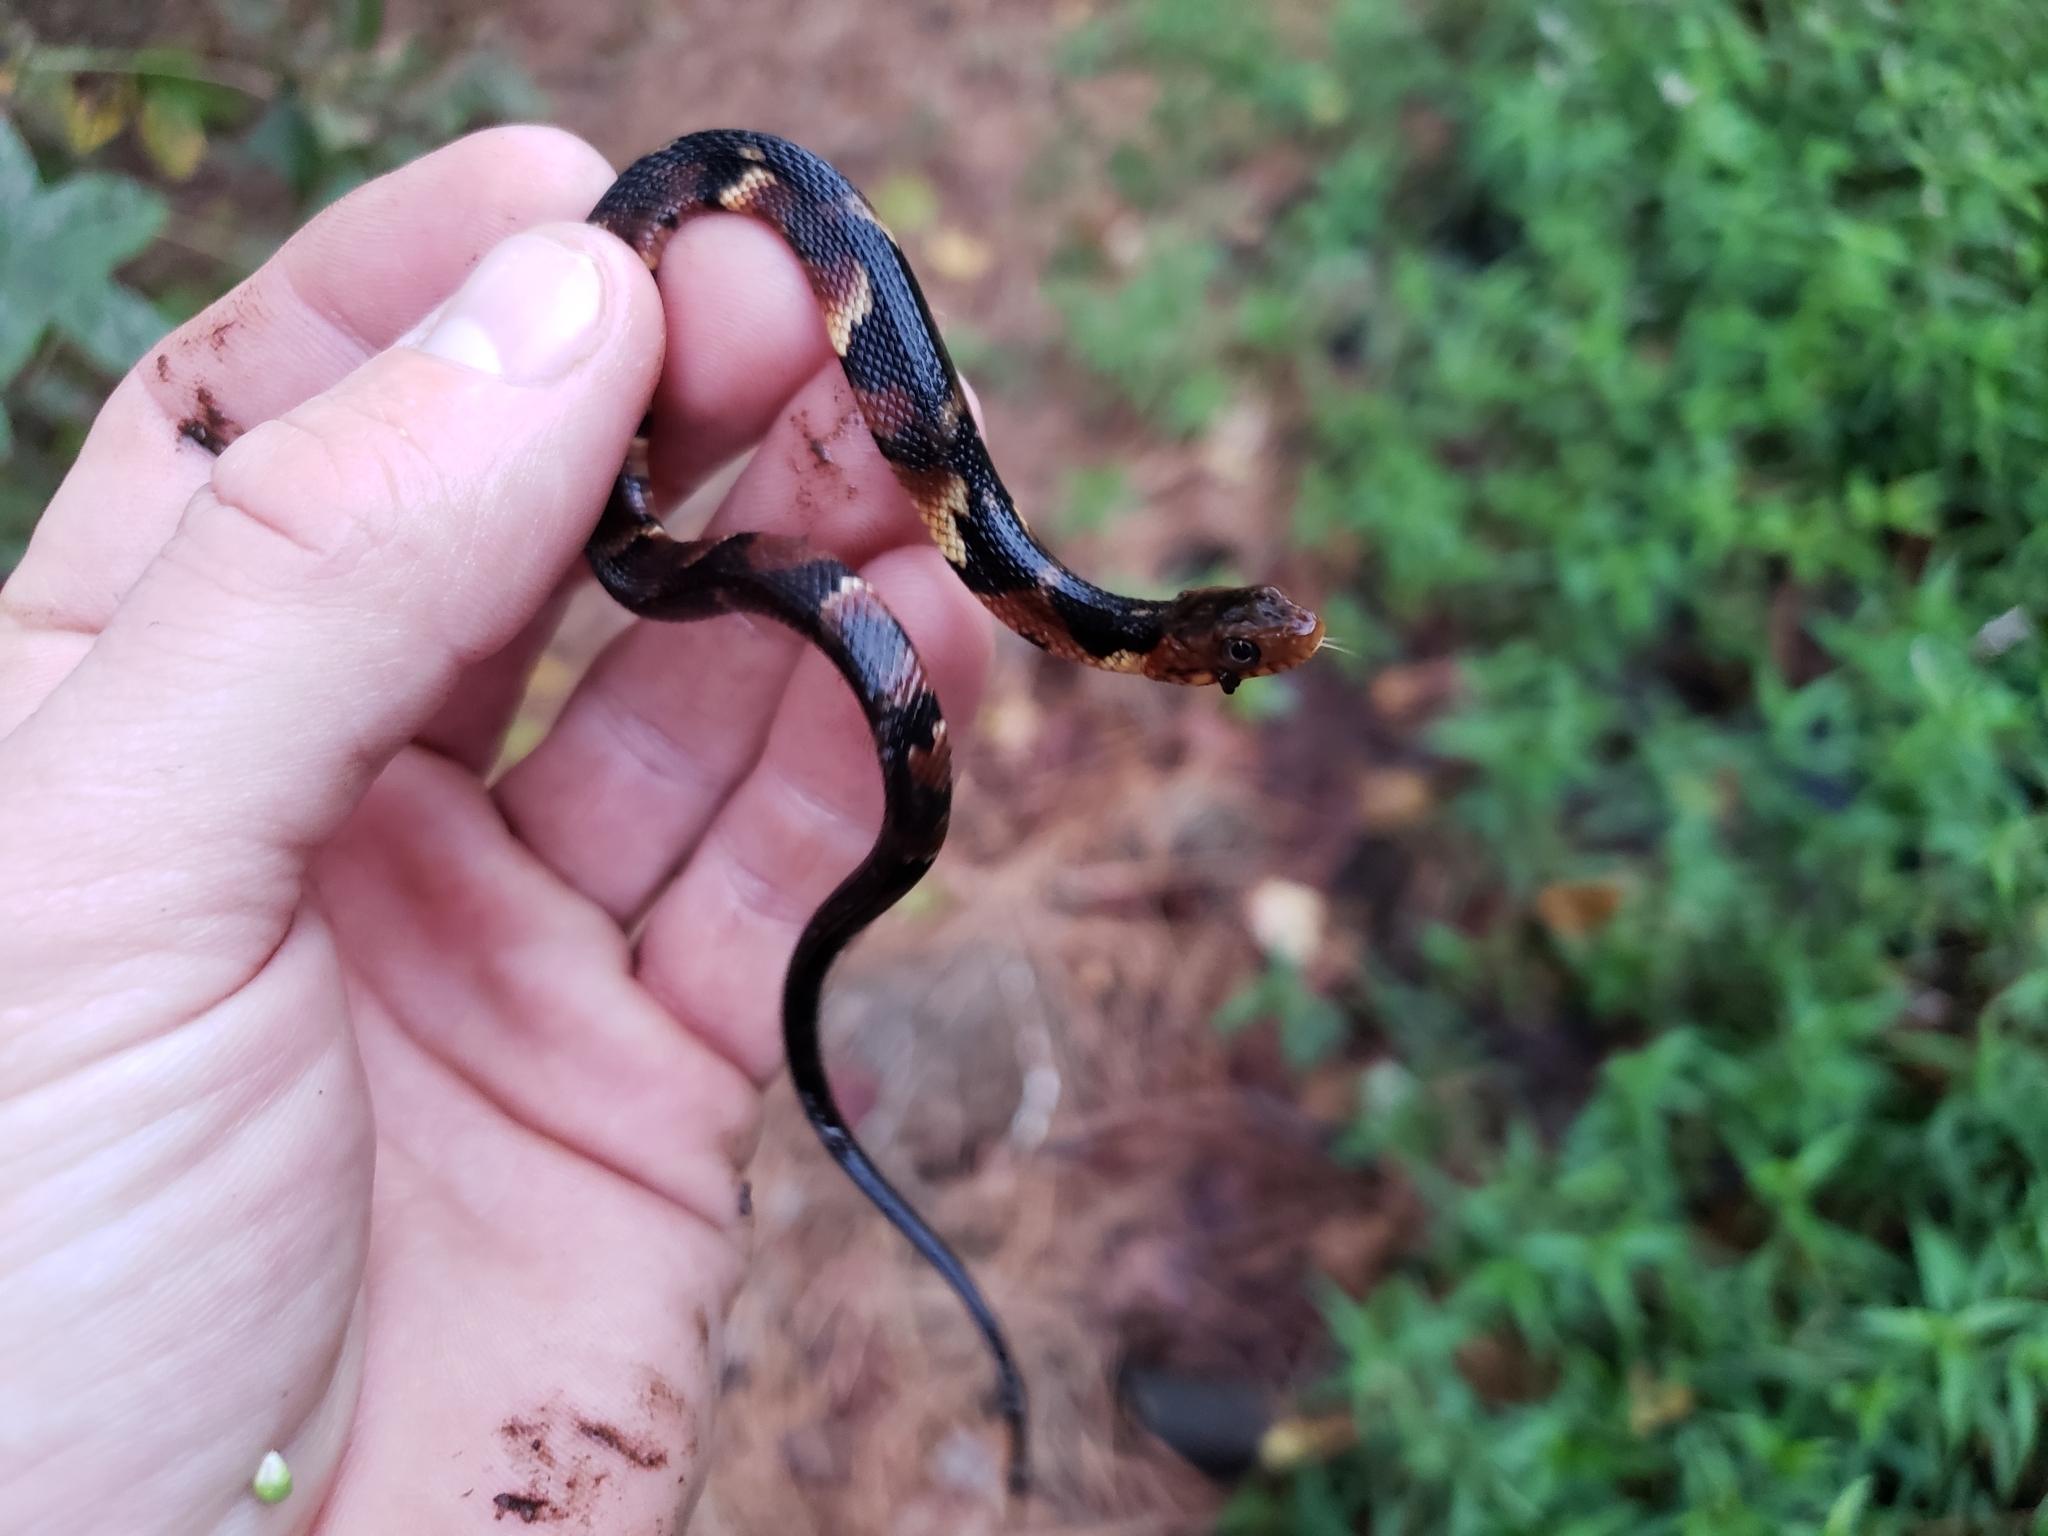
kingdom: Animalia
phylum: Chordata
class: Squamata
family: Colubridae
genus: Nerodia
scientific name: Nerodia fasciata
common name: Southern water snake
